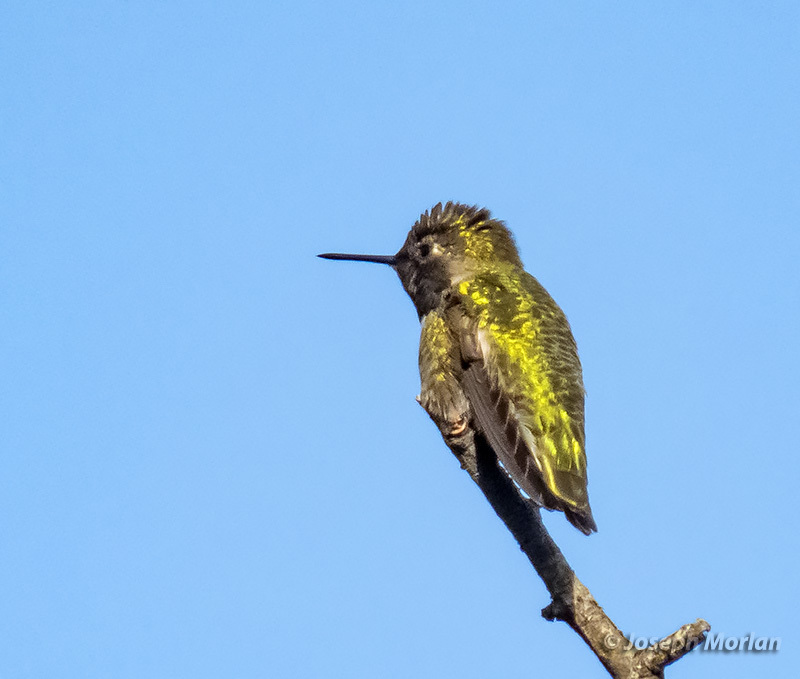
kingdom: Animalia
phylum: Chordata
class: Aves
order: Apodiformes
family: Trochilidae
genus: Calypte
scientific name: Calypte anna
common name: Anna's hummingbird
